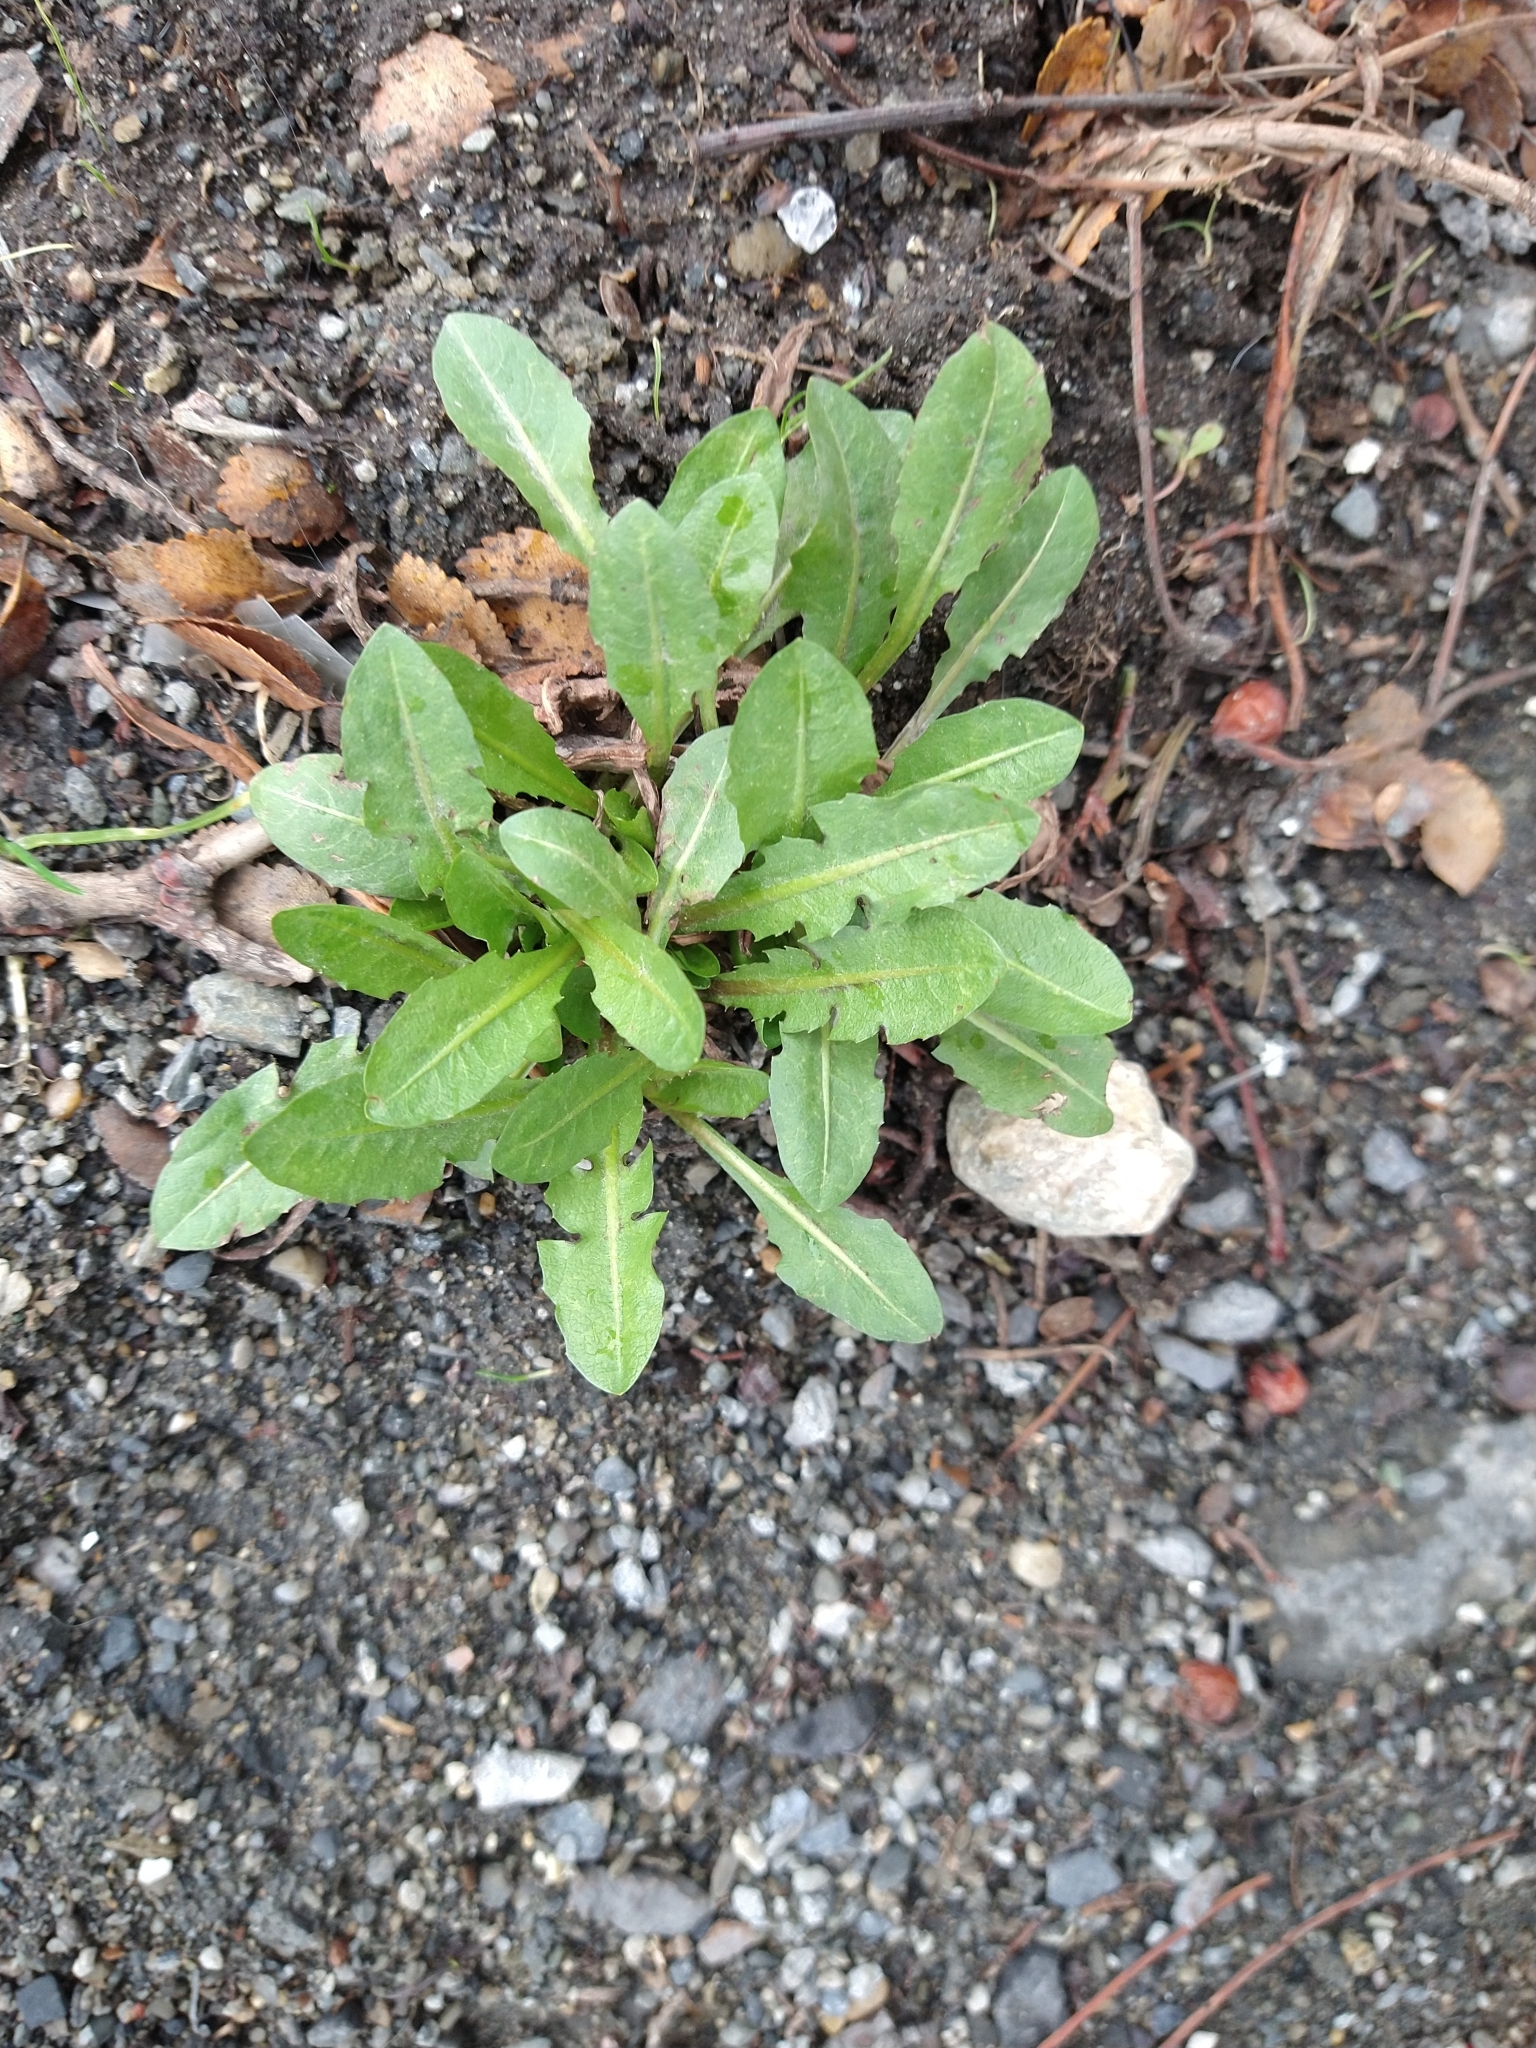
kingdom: Plantae
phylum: Tracheophyta
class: Magnoliopsida
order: Asterales
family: Asteraceae
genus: Taraxacum
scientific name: Taraxacum officinale
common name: Common dandelion
